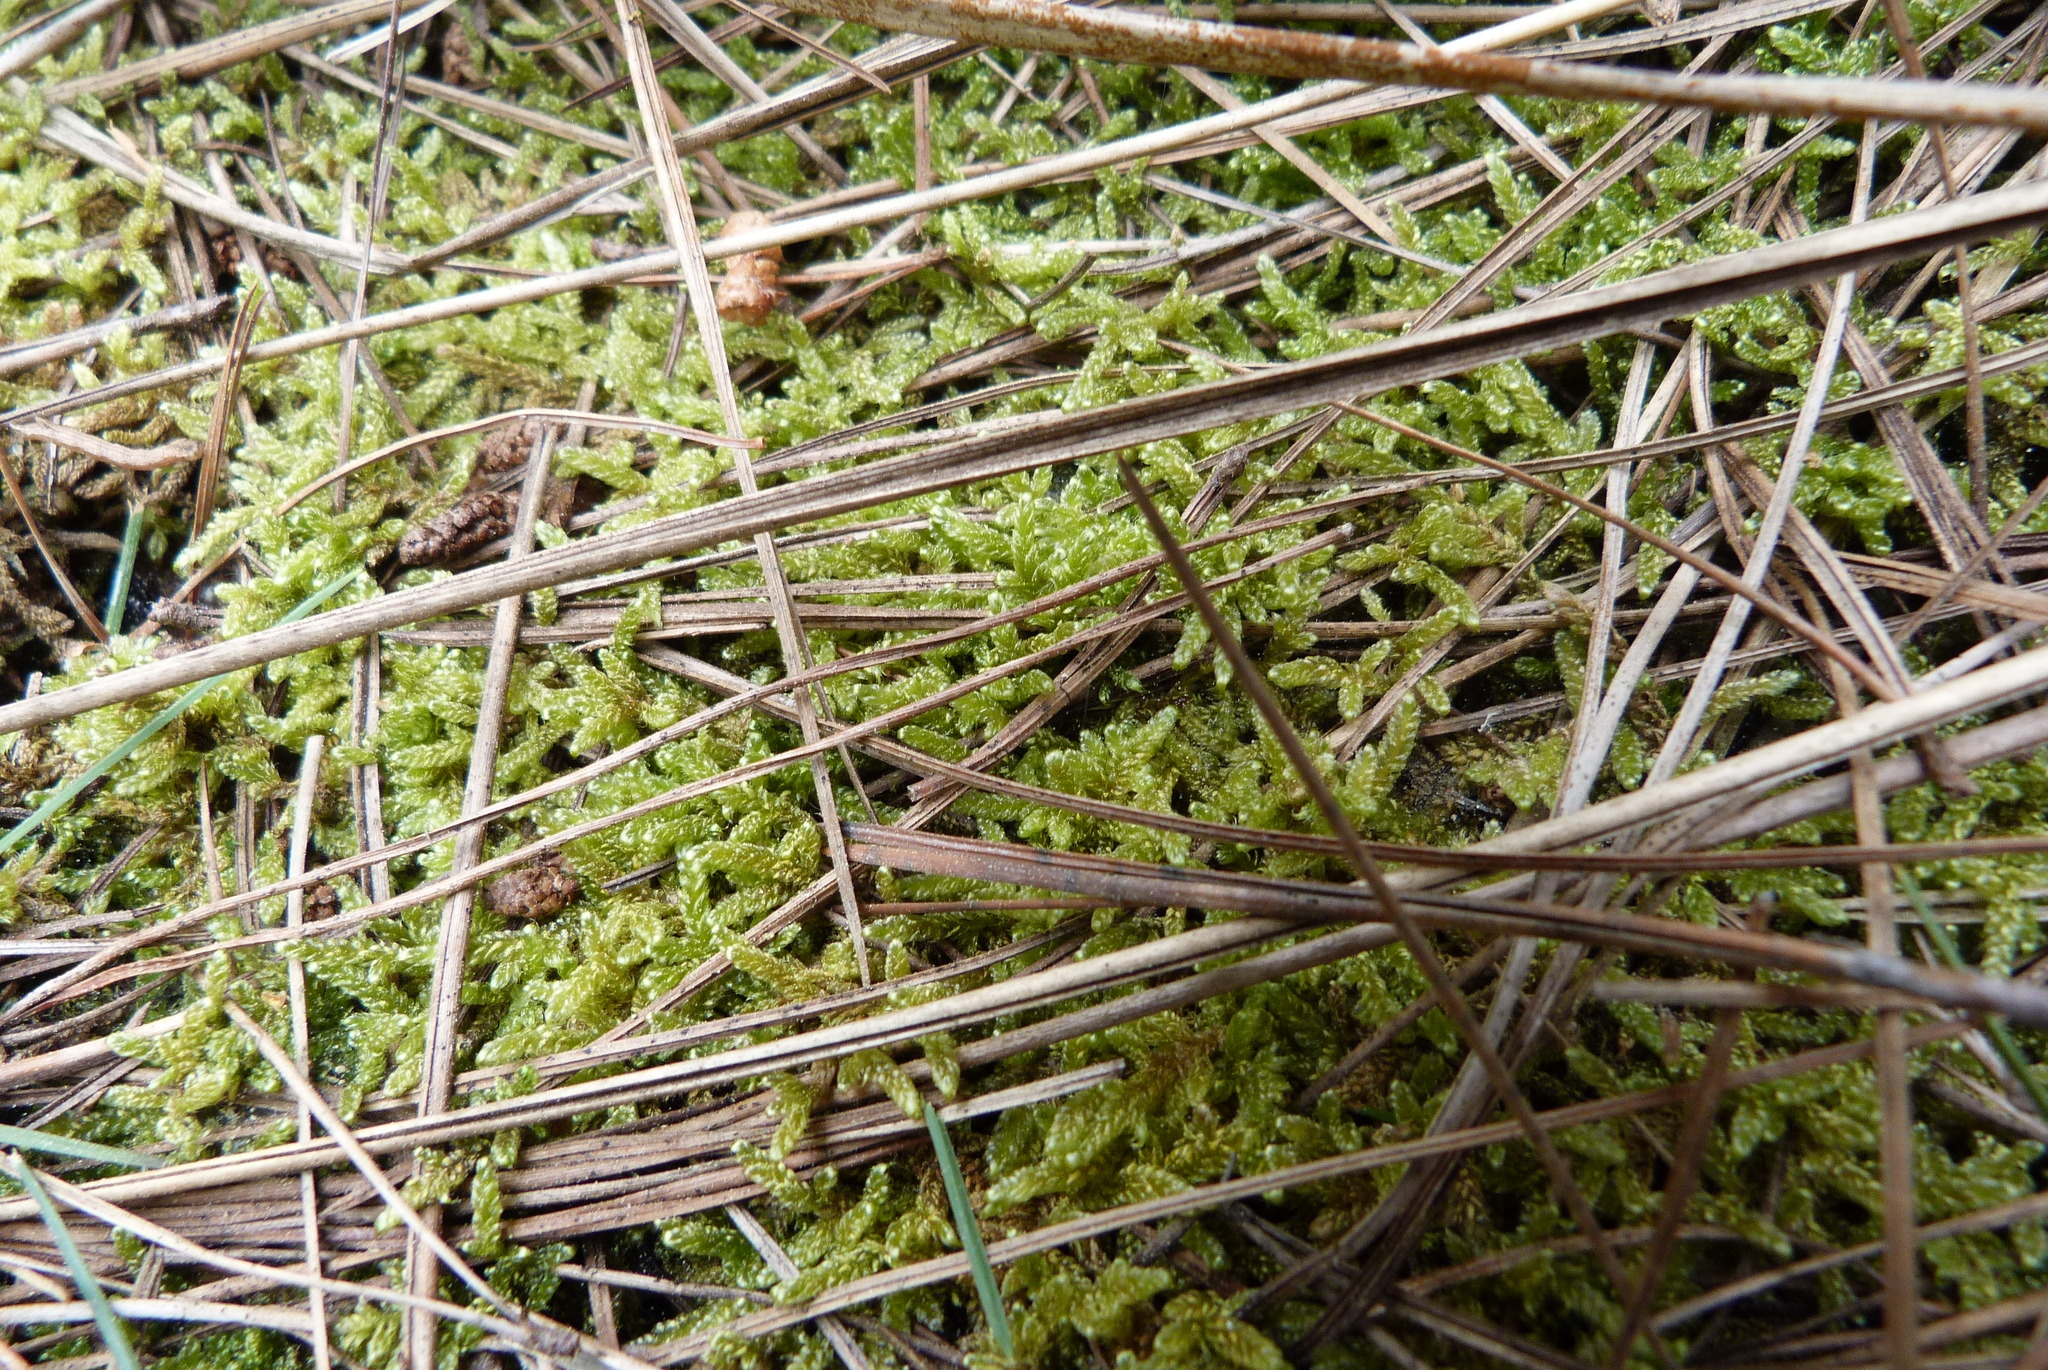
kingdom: Plantae
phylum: Bryophyta
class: Bryopsida
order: Hypnales
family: Hypnaceae
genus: Hypnum
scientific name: Hypnum cupressiforme
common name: Cypress-leaved plait-moss
